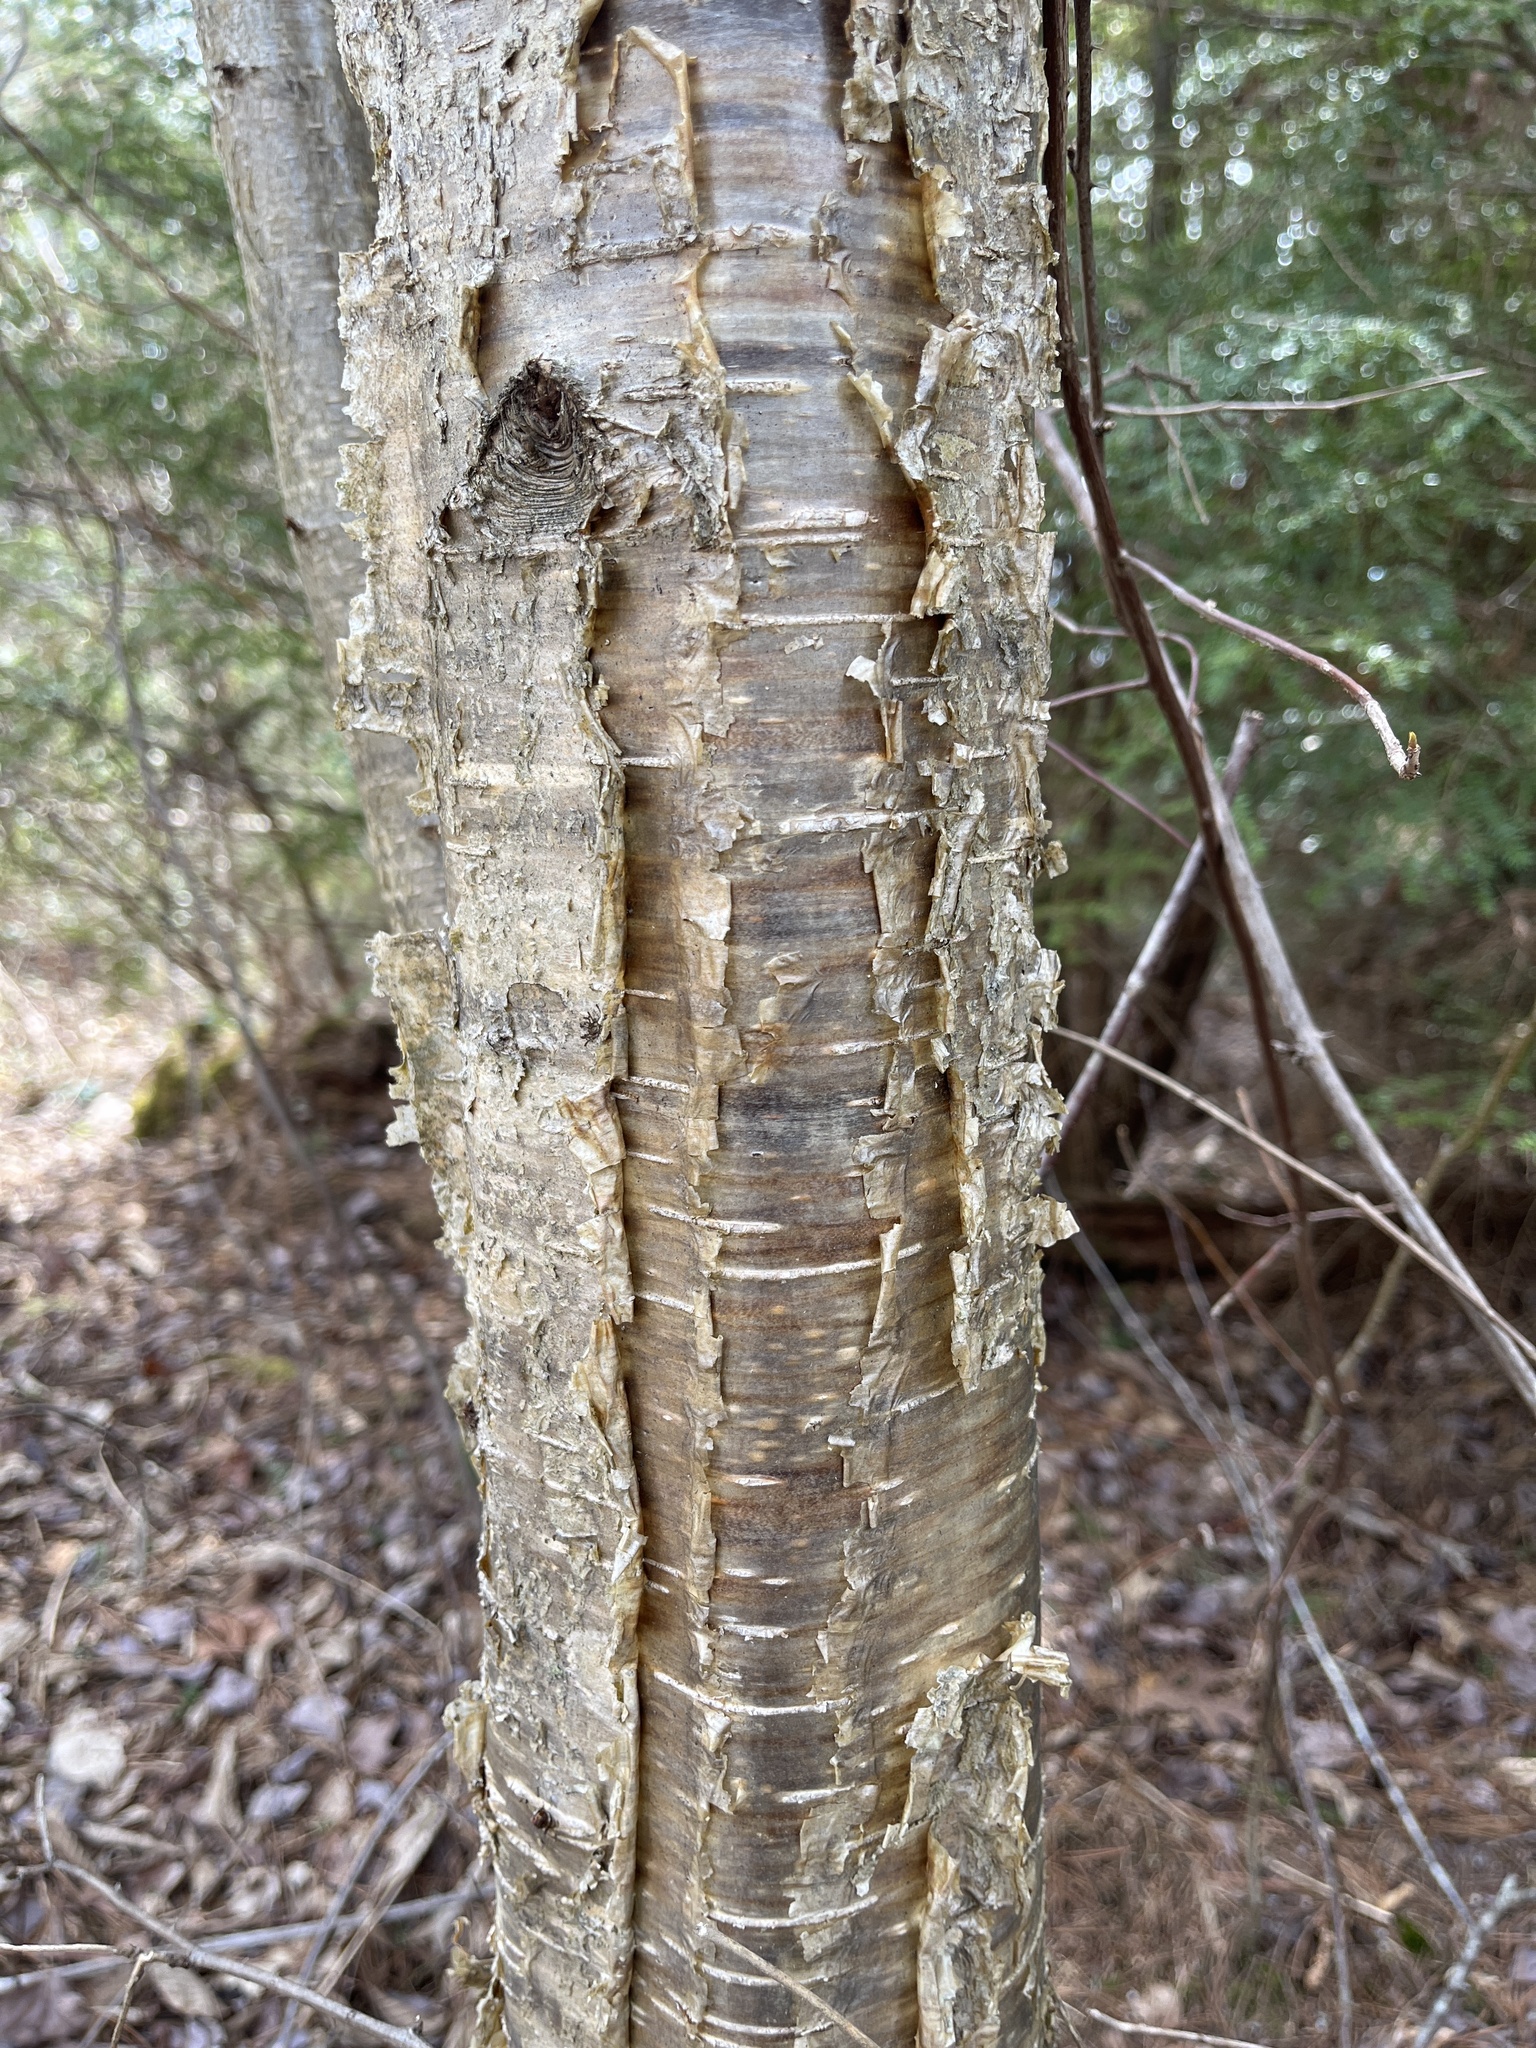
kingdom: Plantae
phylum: Tracheophyta
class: Magnoliopsida
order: Fagales
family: Betulaceae
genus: Betula
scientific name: Betula alleghaniensis
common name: Yellow birch
